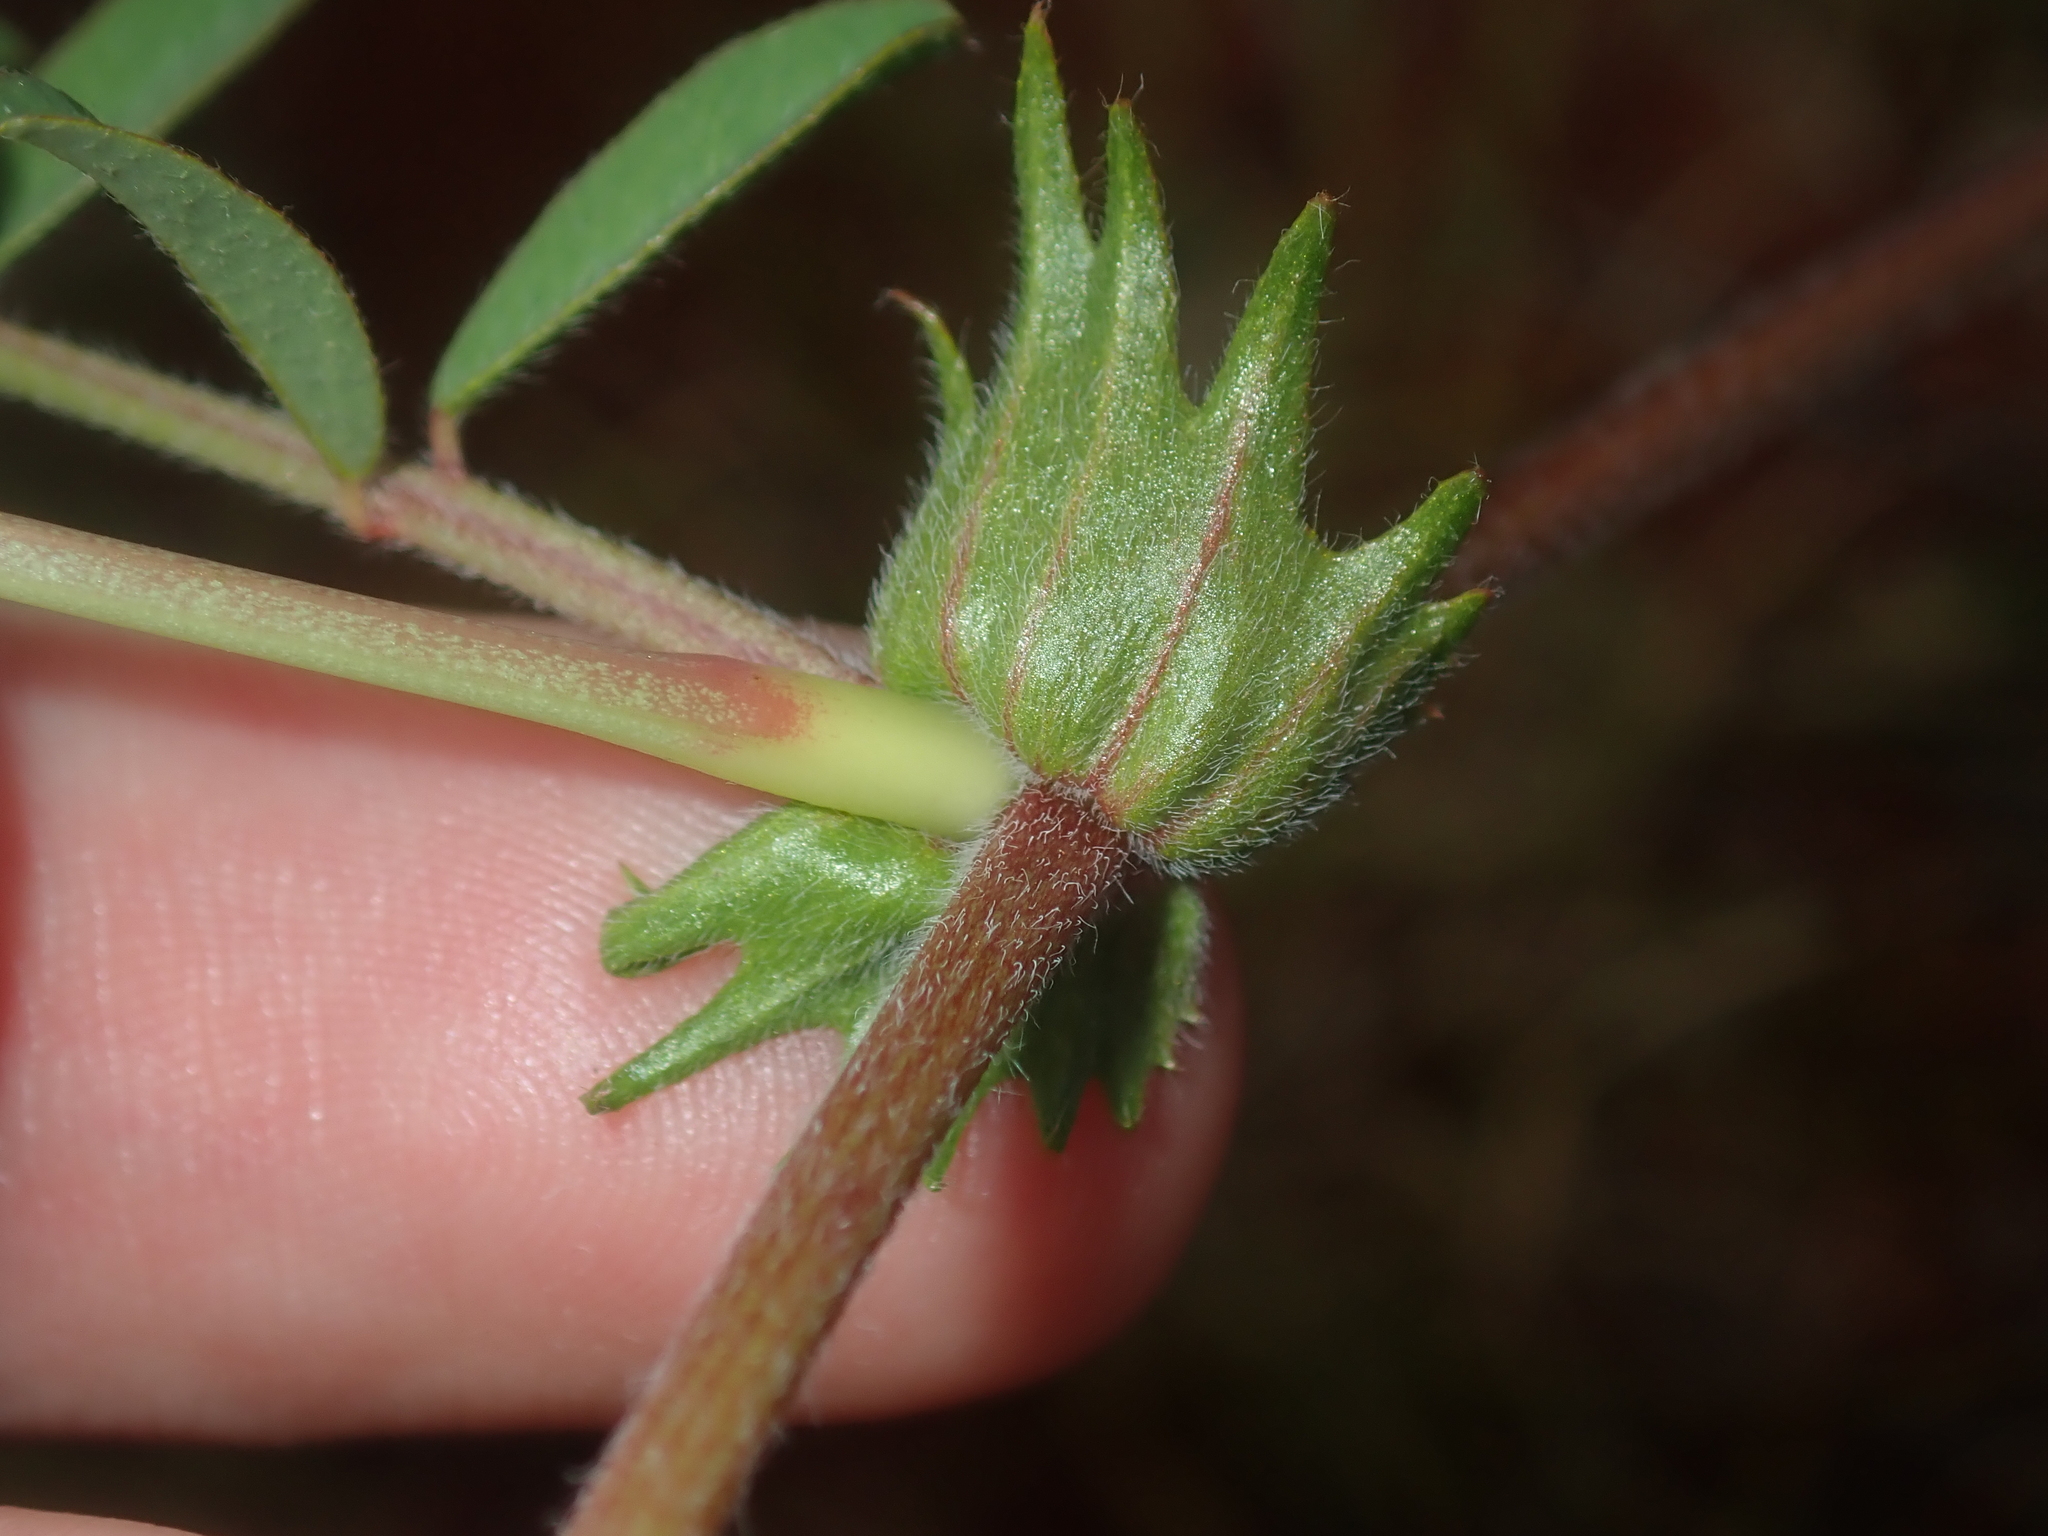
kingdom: Plantae
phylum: Tracheophyta
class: Magnoliopsida
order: Fabales
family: Fabaceae
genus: Swainsona
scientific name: Swainsona elegans
